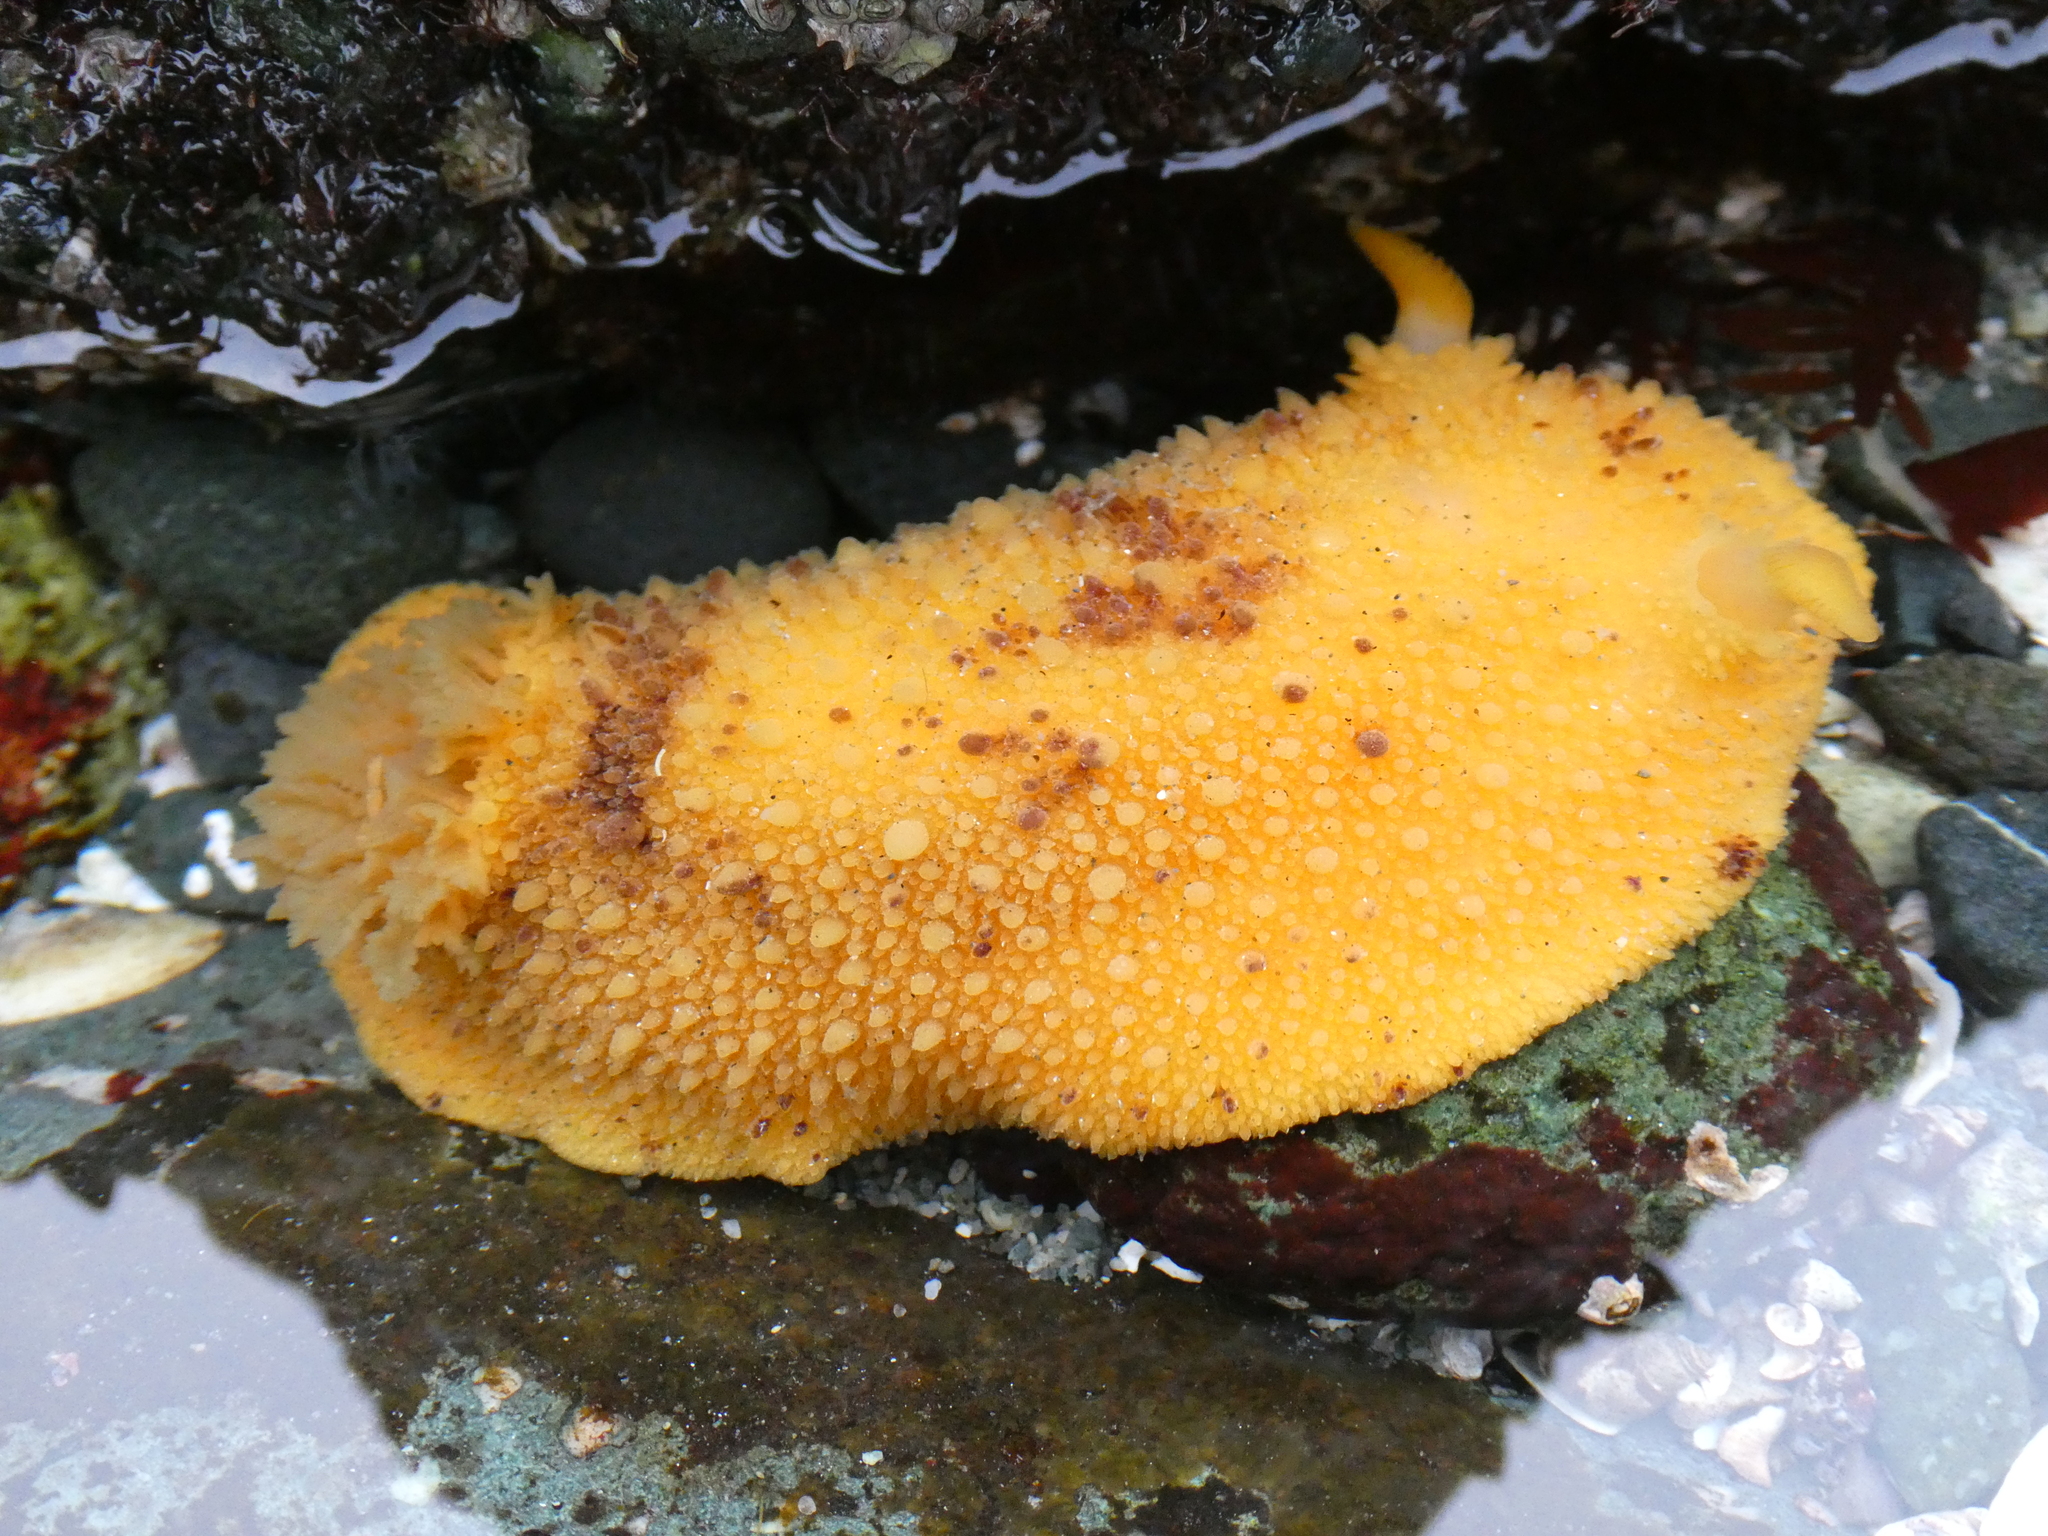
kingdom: Animalia
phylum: Mollusca
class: Gastropoda
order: Nudibranchia
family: Dorididae
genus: Doris
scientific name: Doris montereyensis
